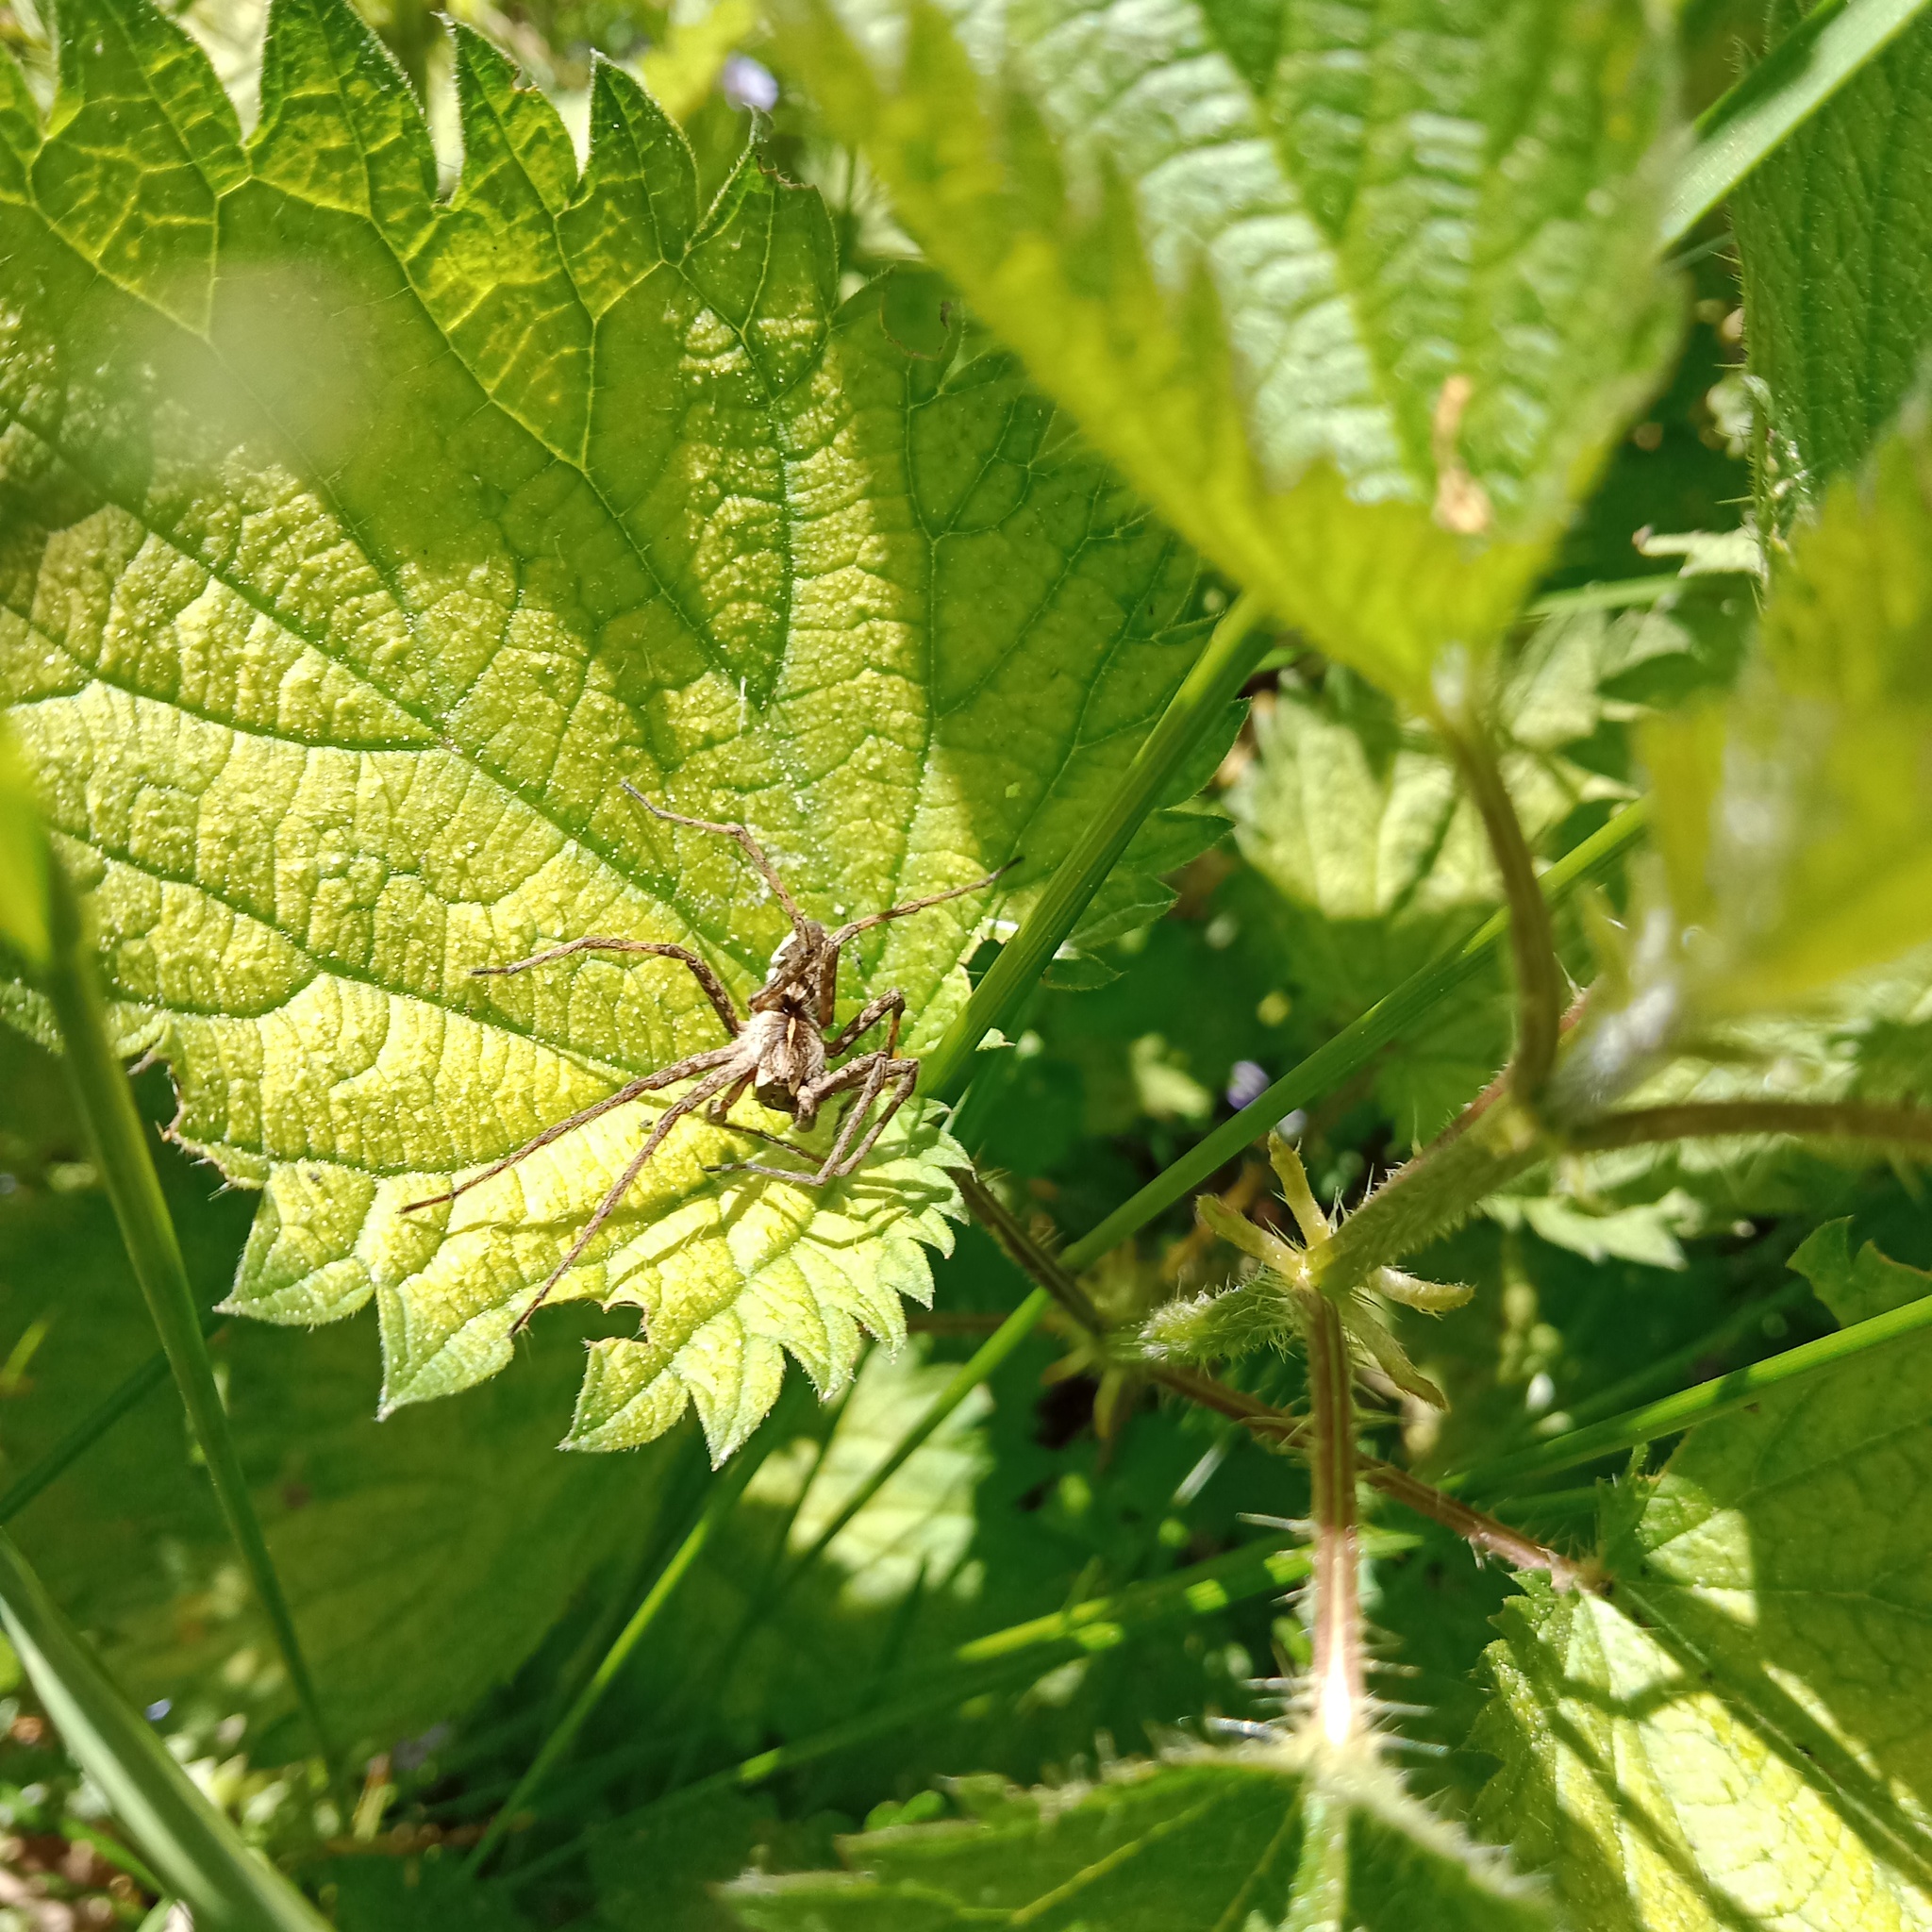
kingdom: Animalia
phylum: Arthropoda
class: Arachnida
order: Araneae
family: Pisauridae
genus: Pisaura
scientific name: Pisaura
